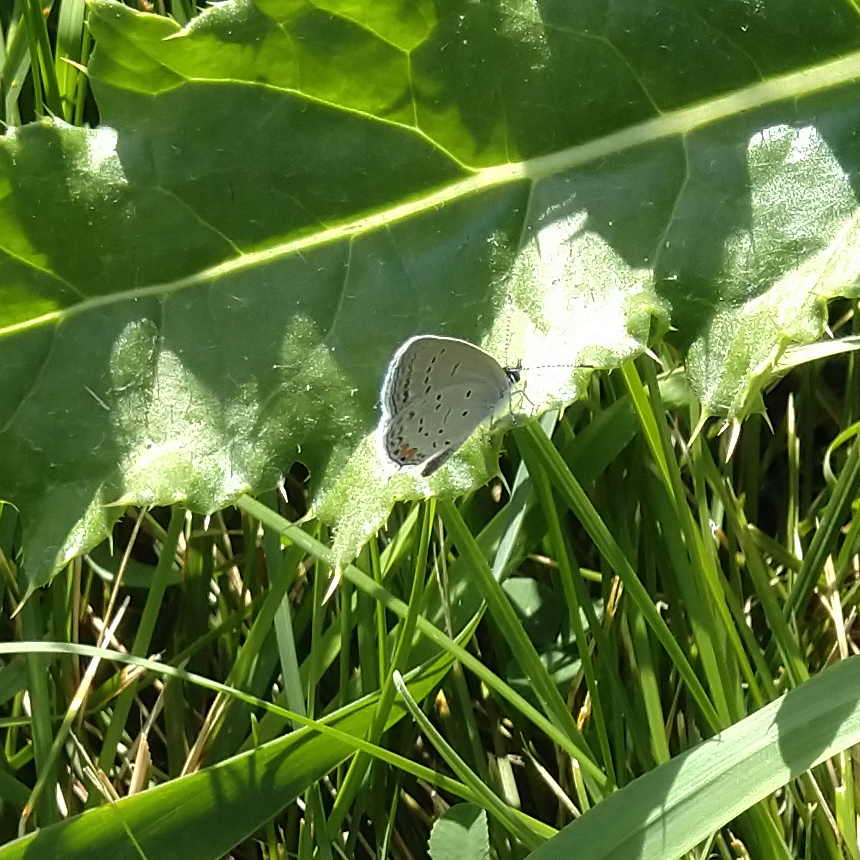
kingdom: Animalia
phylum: Arthropoda
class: Insecta
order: Lepidoptera
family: Lycaenidae
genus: Elkalyce
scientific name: Elkalyce comyntas
